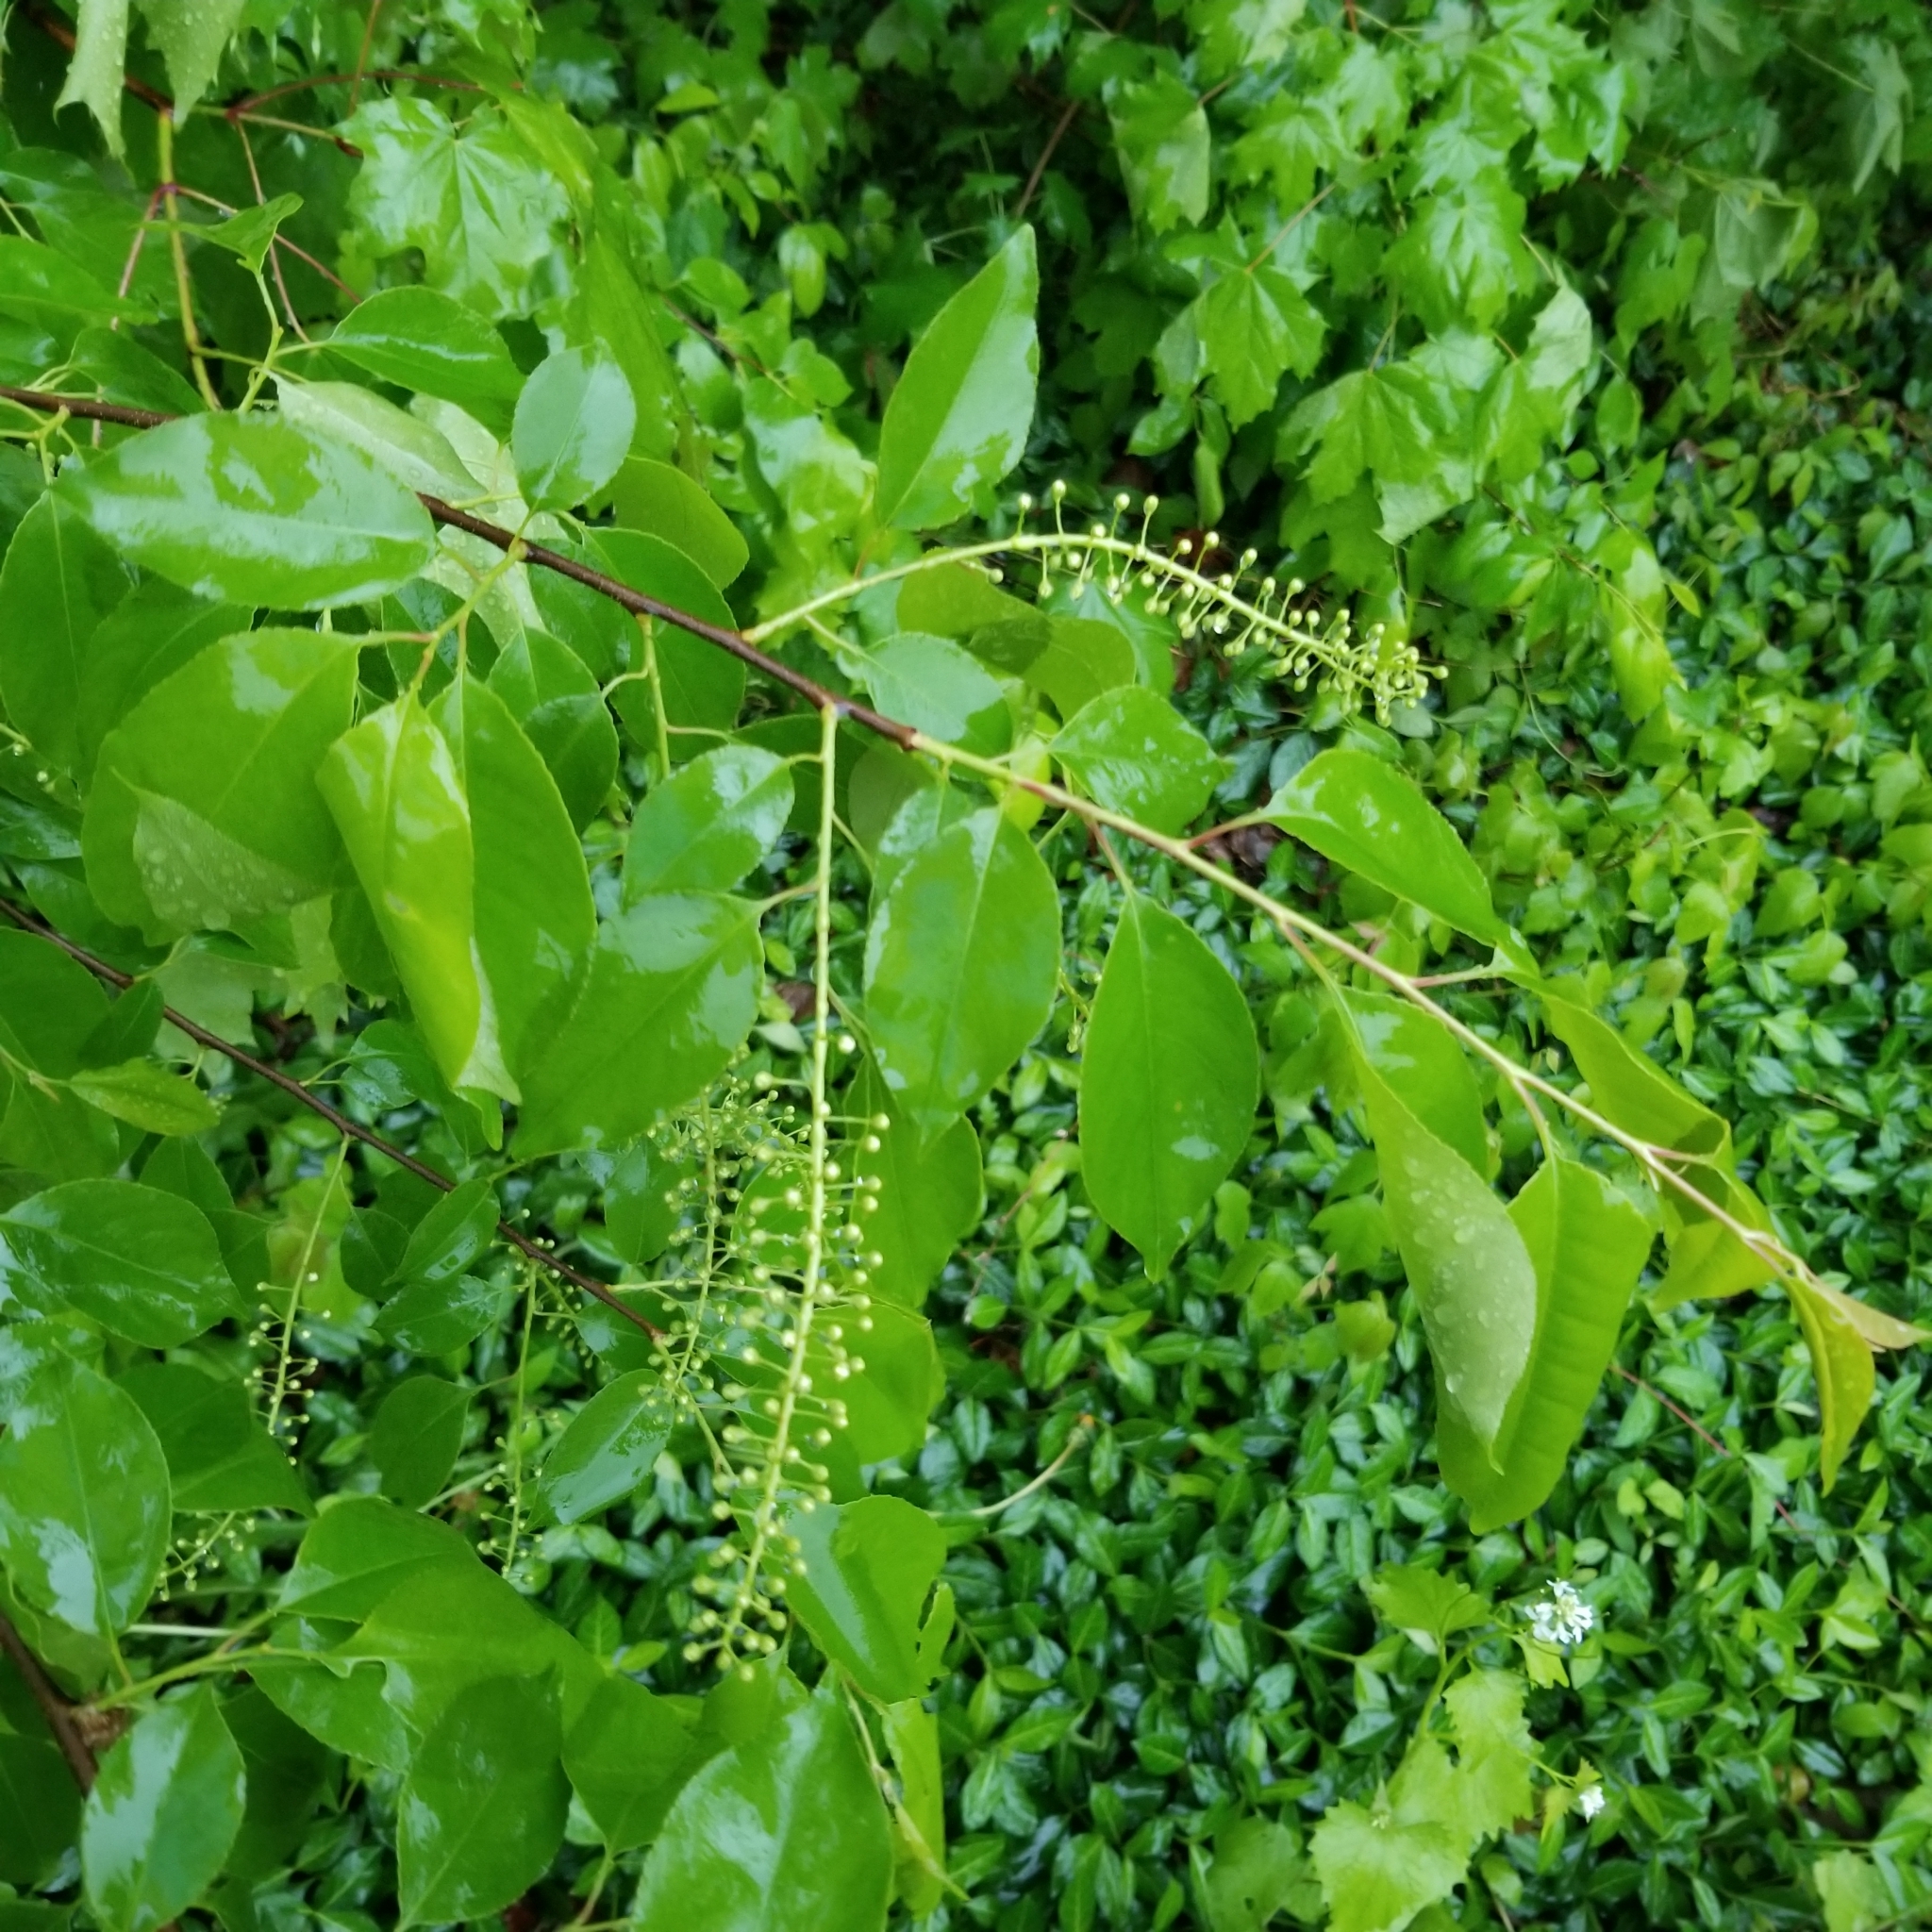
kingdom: Plantae
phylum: Tracheophyta
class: Magnoliopsida
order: Rosales
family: Rosaceae
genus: Prunus
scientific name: Prunus serotina
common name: Black cherry
